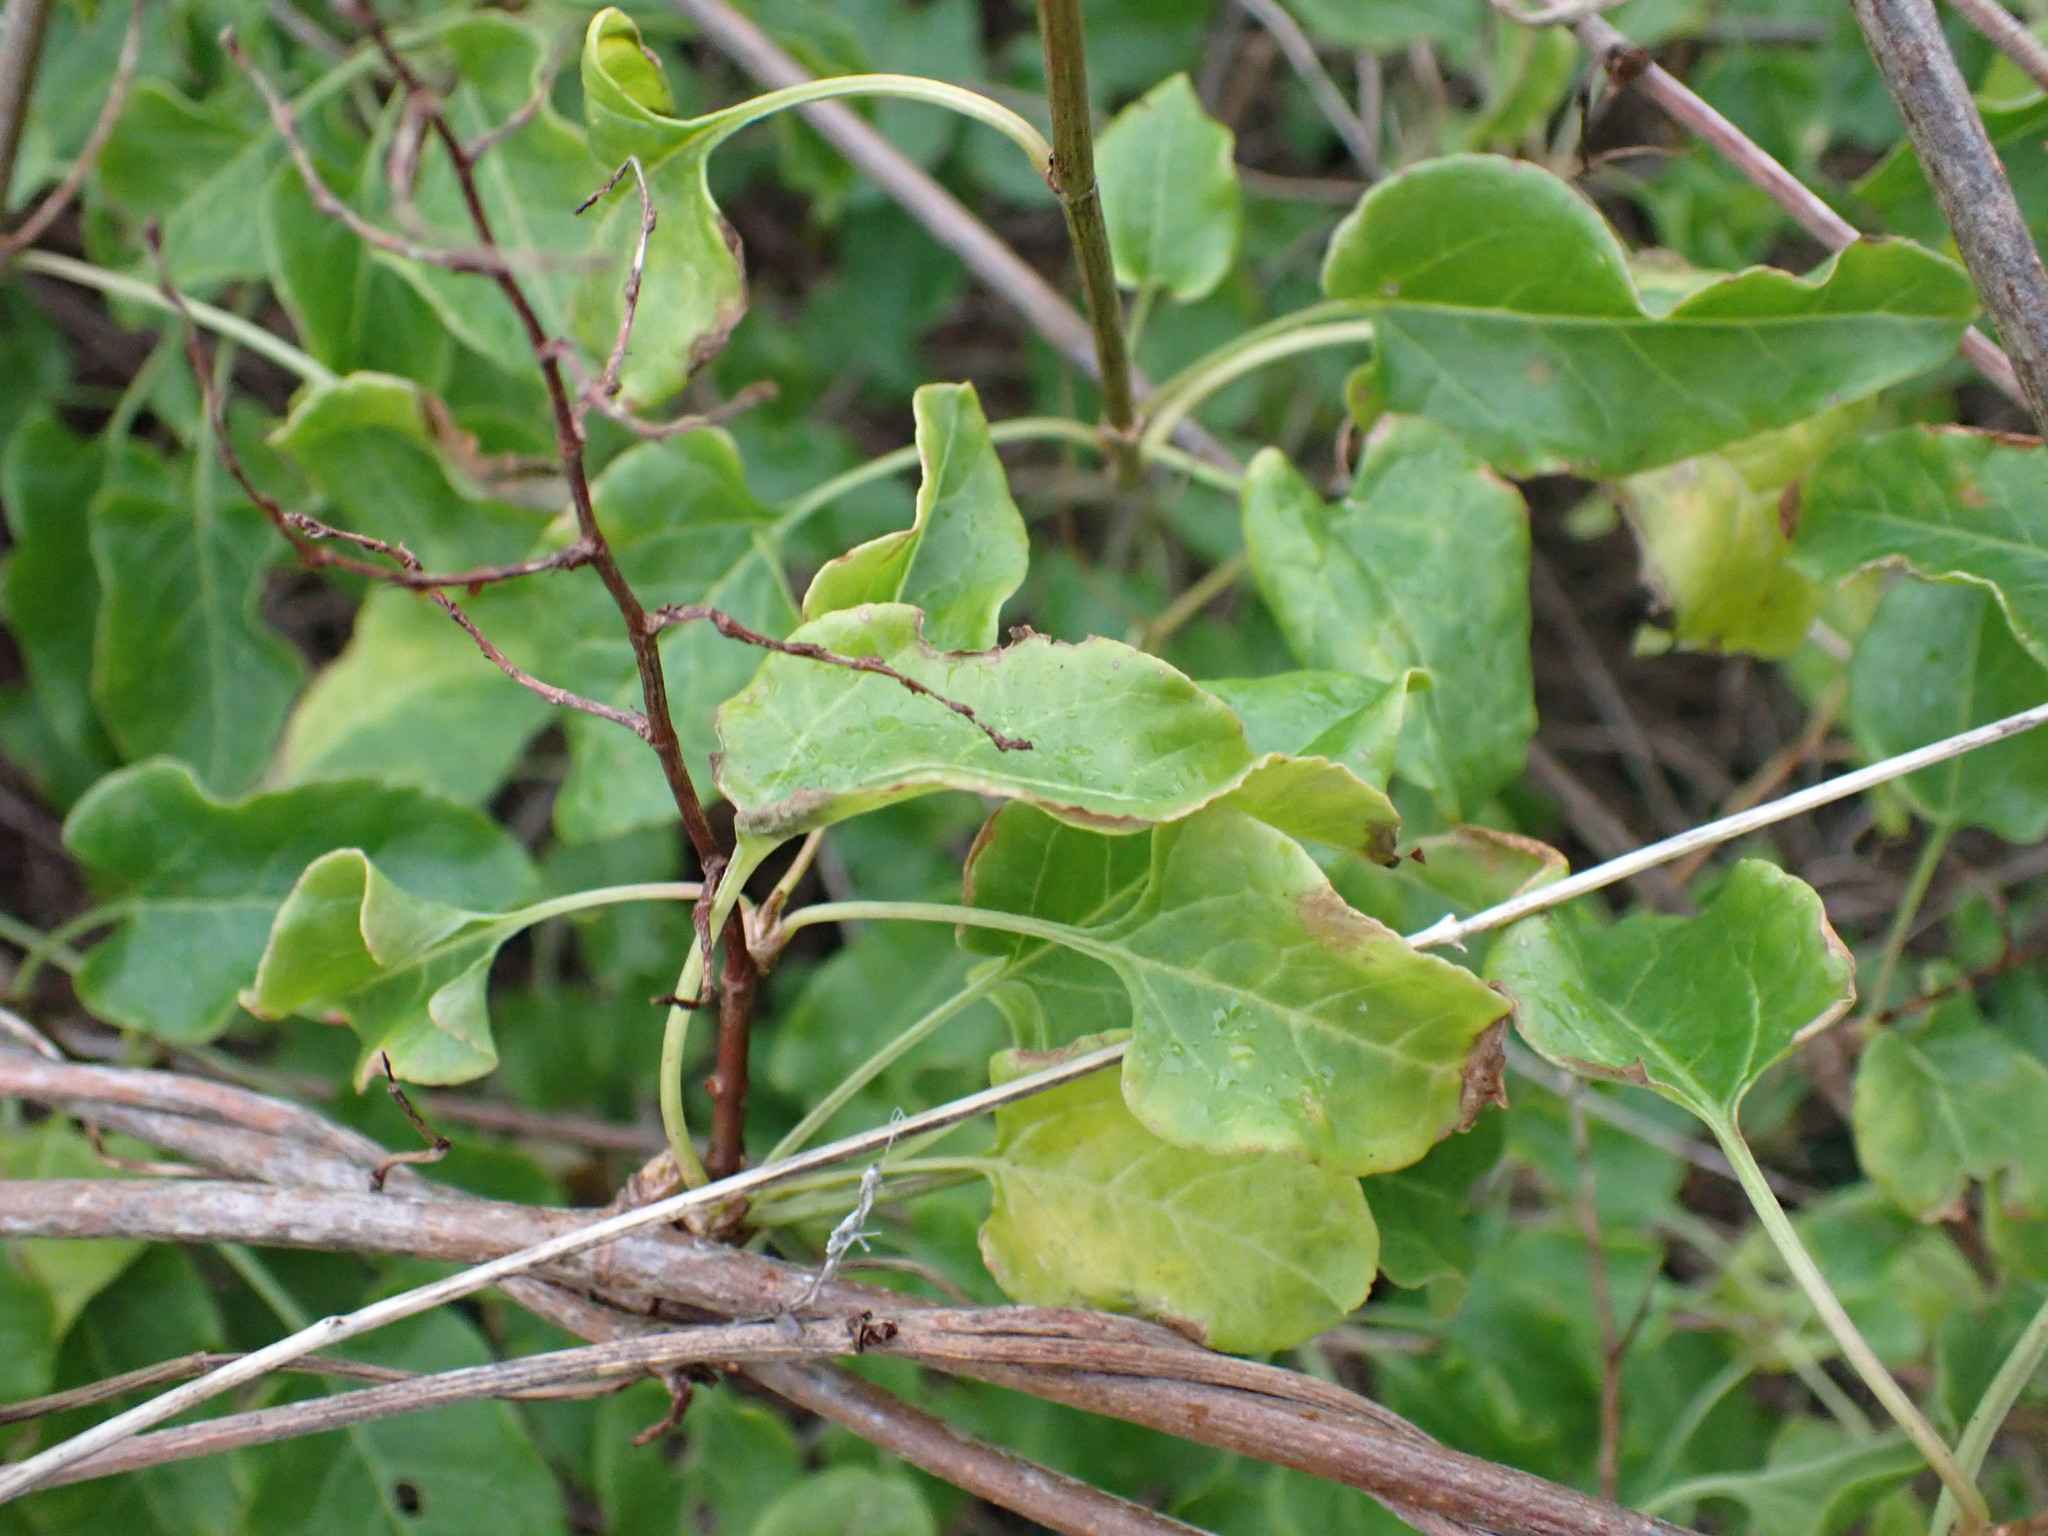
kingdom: Plantae
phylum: Tracheophyta
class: Magnoliopsida
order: Caryophyllales
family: Polygonaceae
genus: Fallopia
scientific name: Fallopia baldschuanica
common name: Russian-vine
